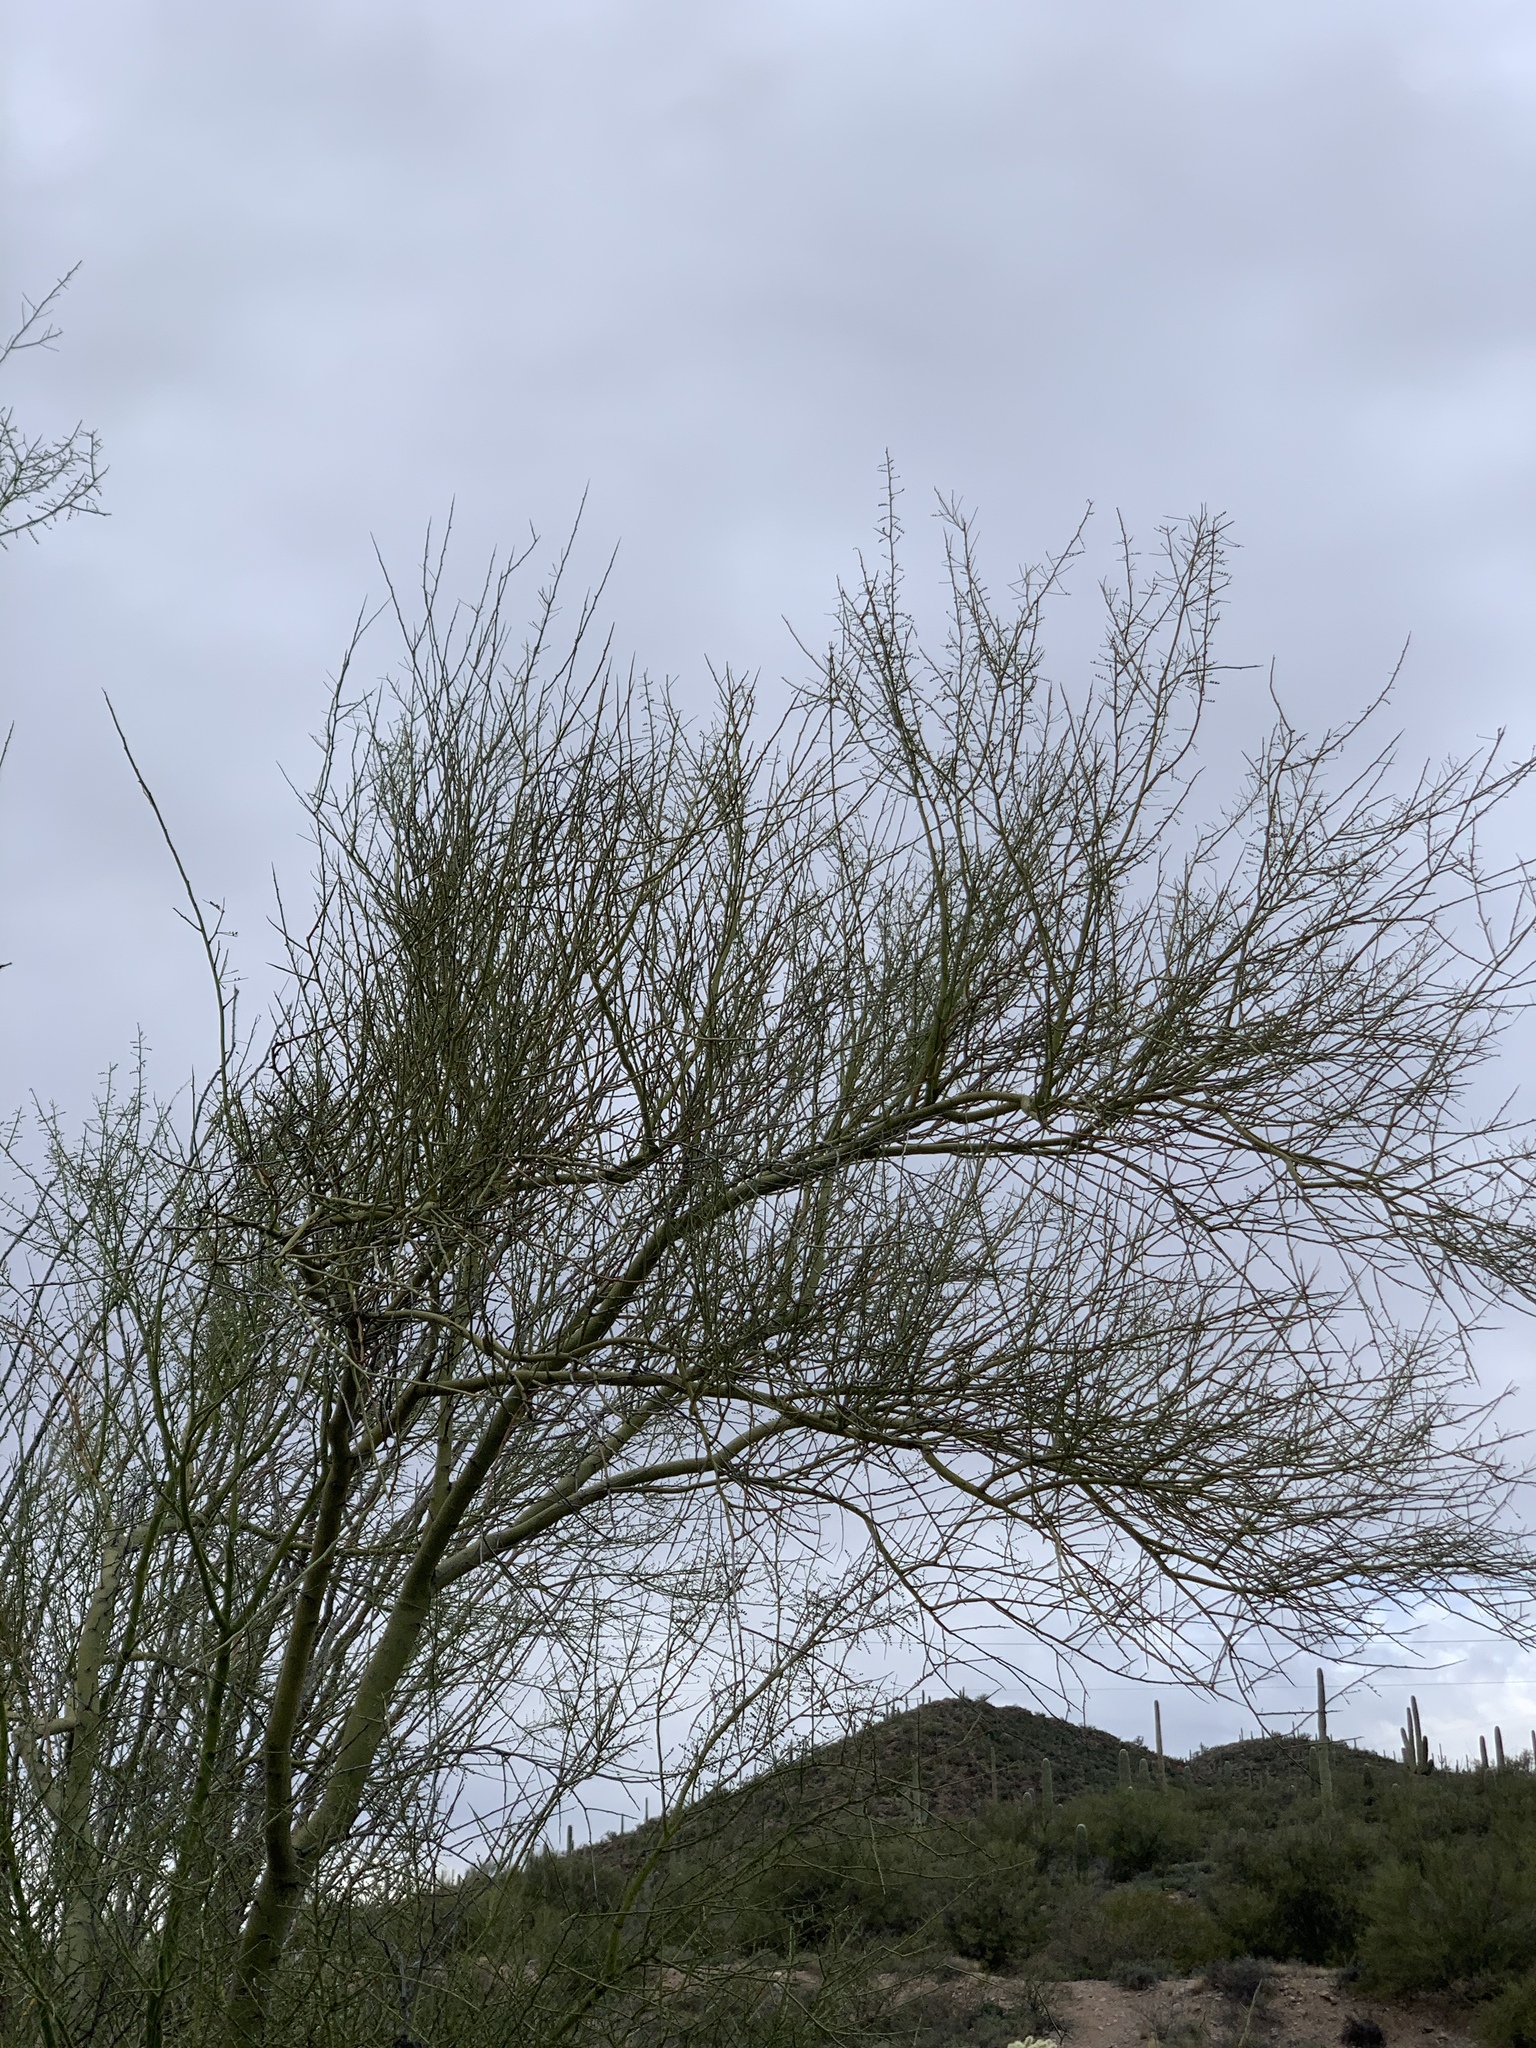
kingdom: Plantae
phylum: Tracheophyta
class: Magnoliopsida
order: Fabales
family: Fabaceae
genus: Parkinsonia
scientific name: Parkinsonia microphylla
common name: Yellow paloverde
